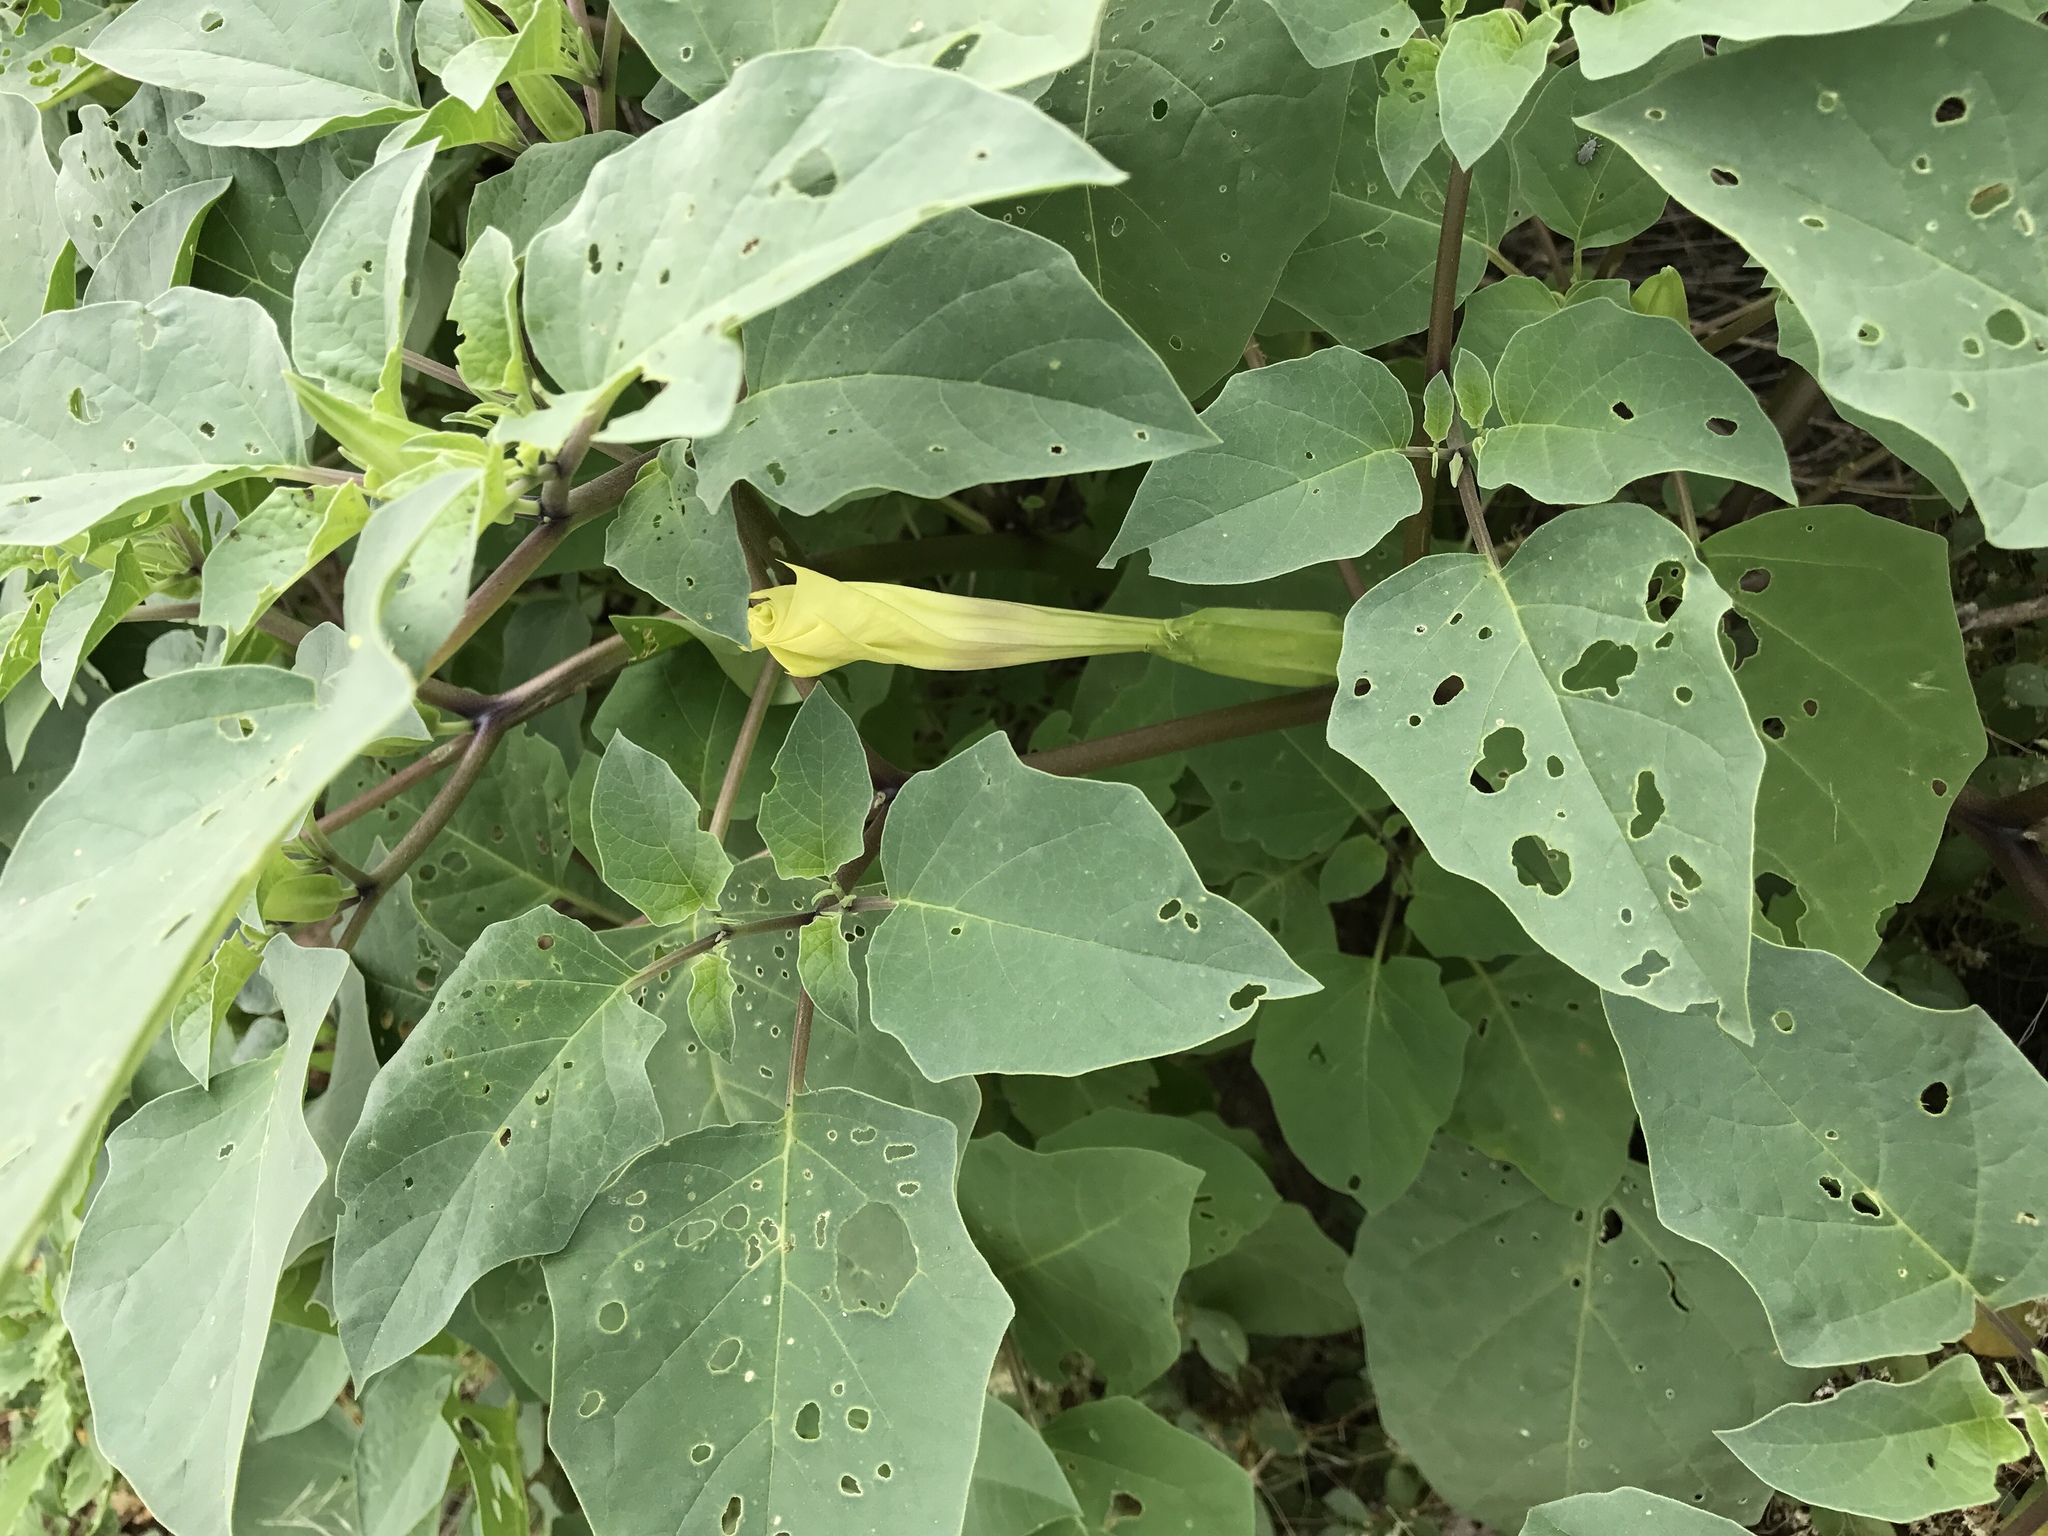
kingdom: Plantae
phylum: Tracheophyta
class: Magnoliopsida
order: Solanales
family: Solanaceae
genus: Datura
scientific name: Datura wrightii
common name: Sacred thorn-apple
